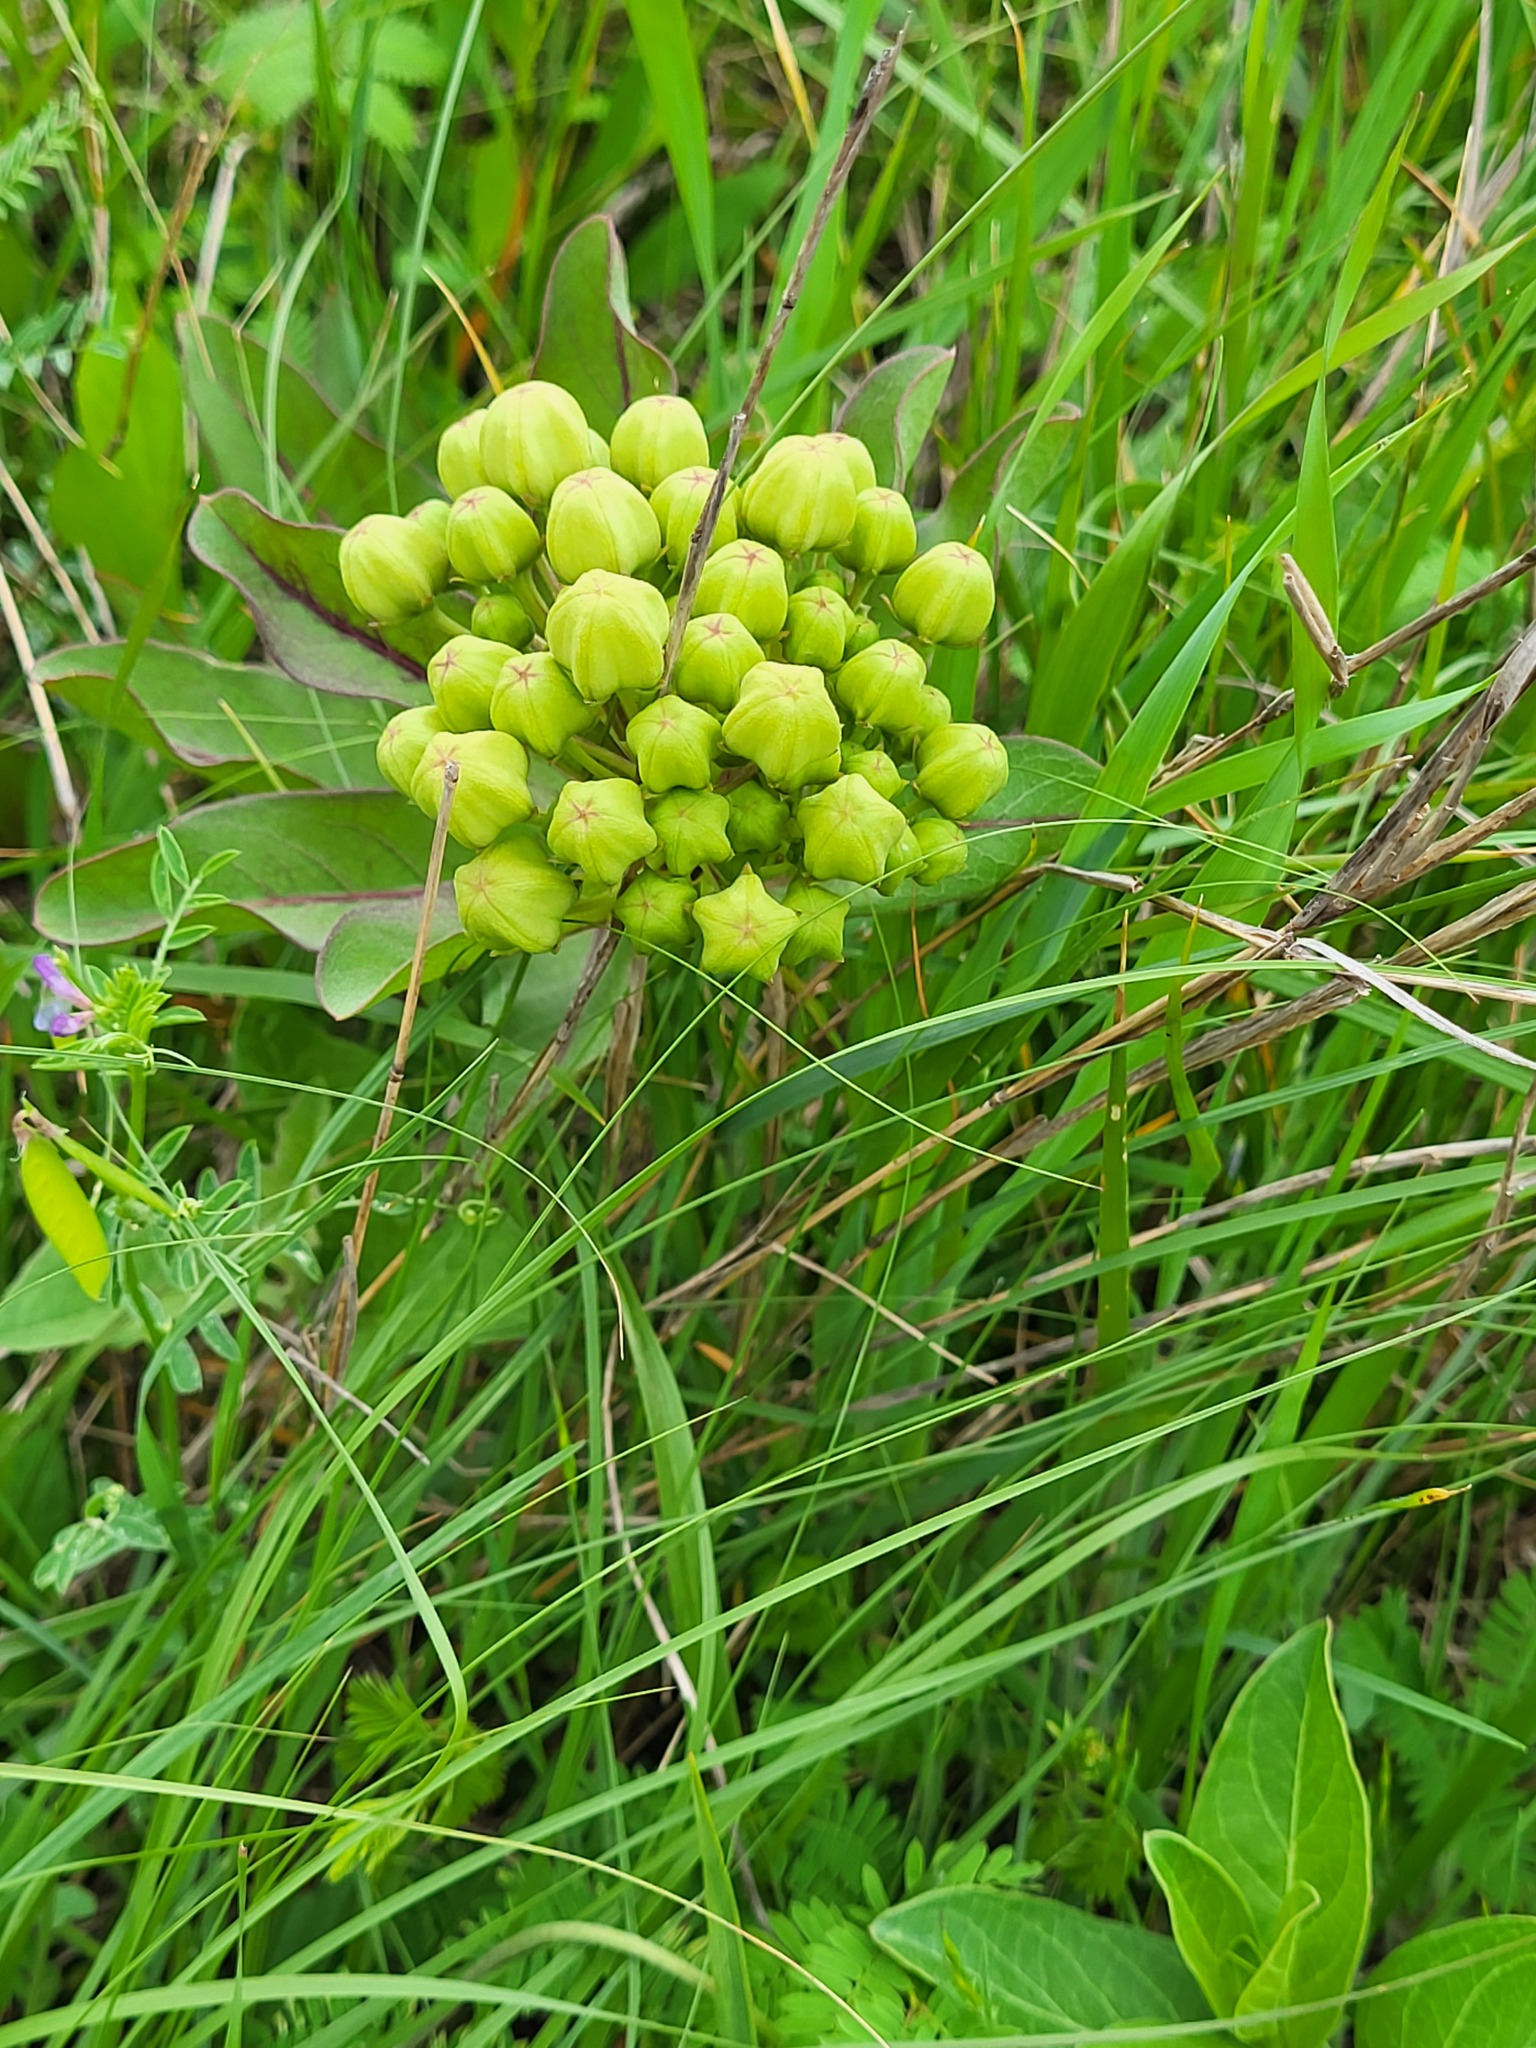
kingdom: Plantae
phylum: Tracheophyta
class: Magnoliopsida
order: Gentianales
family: Apocynaceae
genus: Asclepias
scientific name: Asclepias viridis
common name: Antelope-horns
